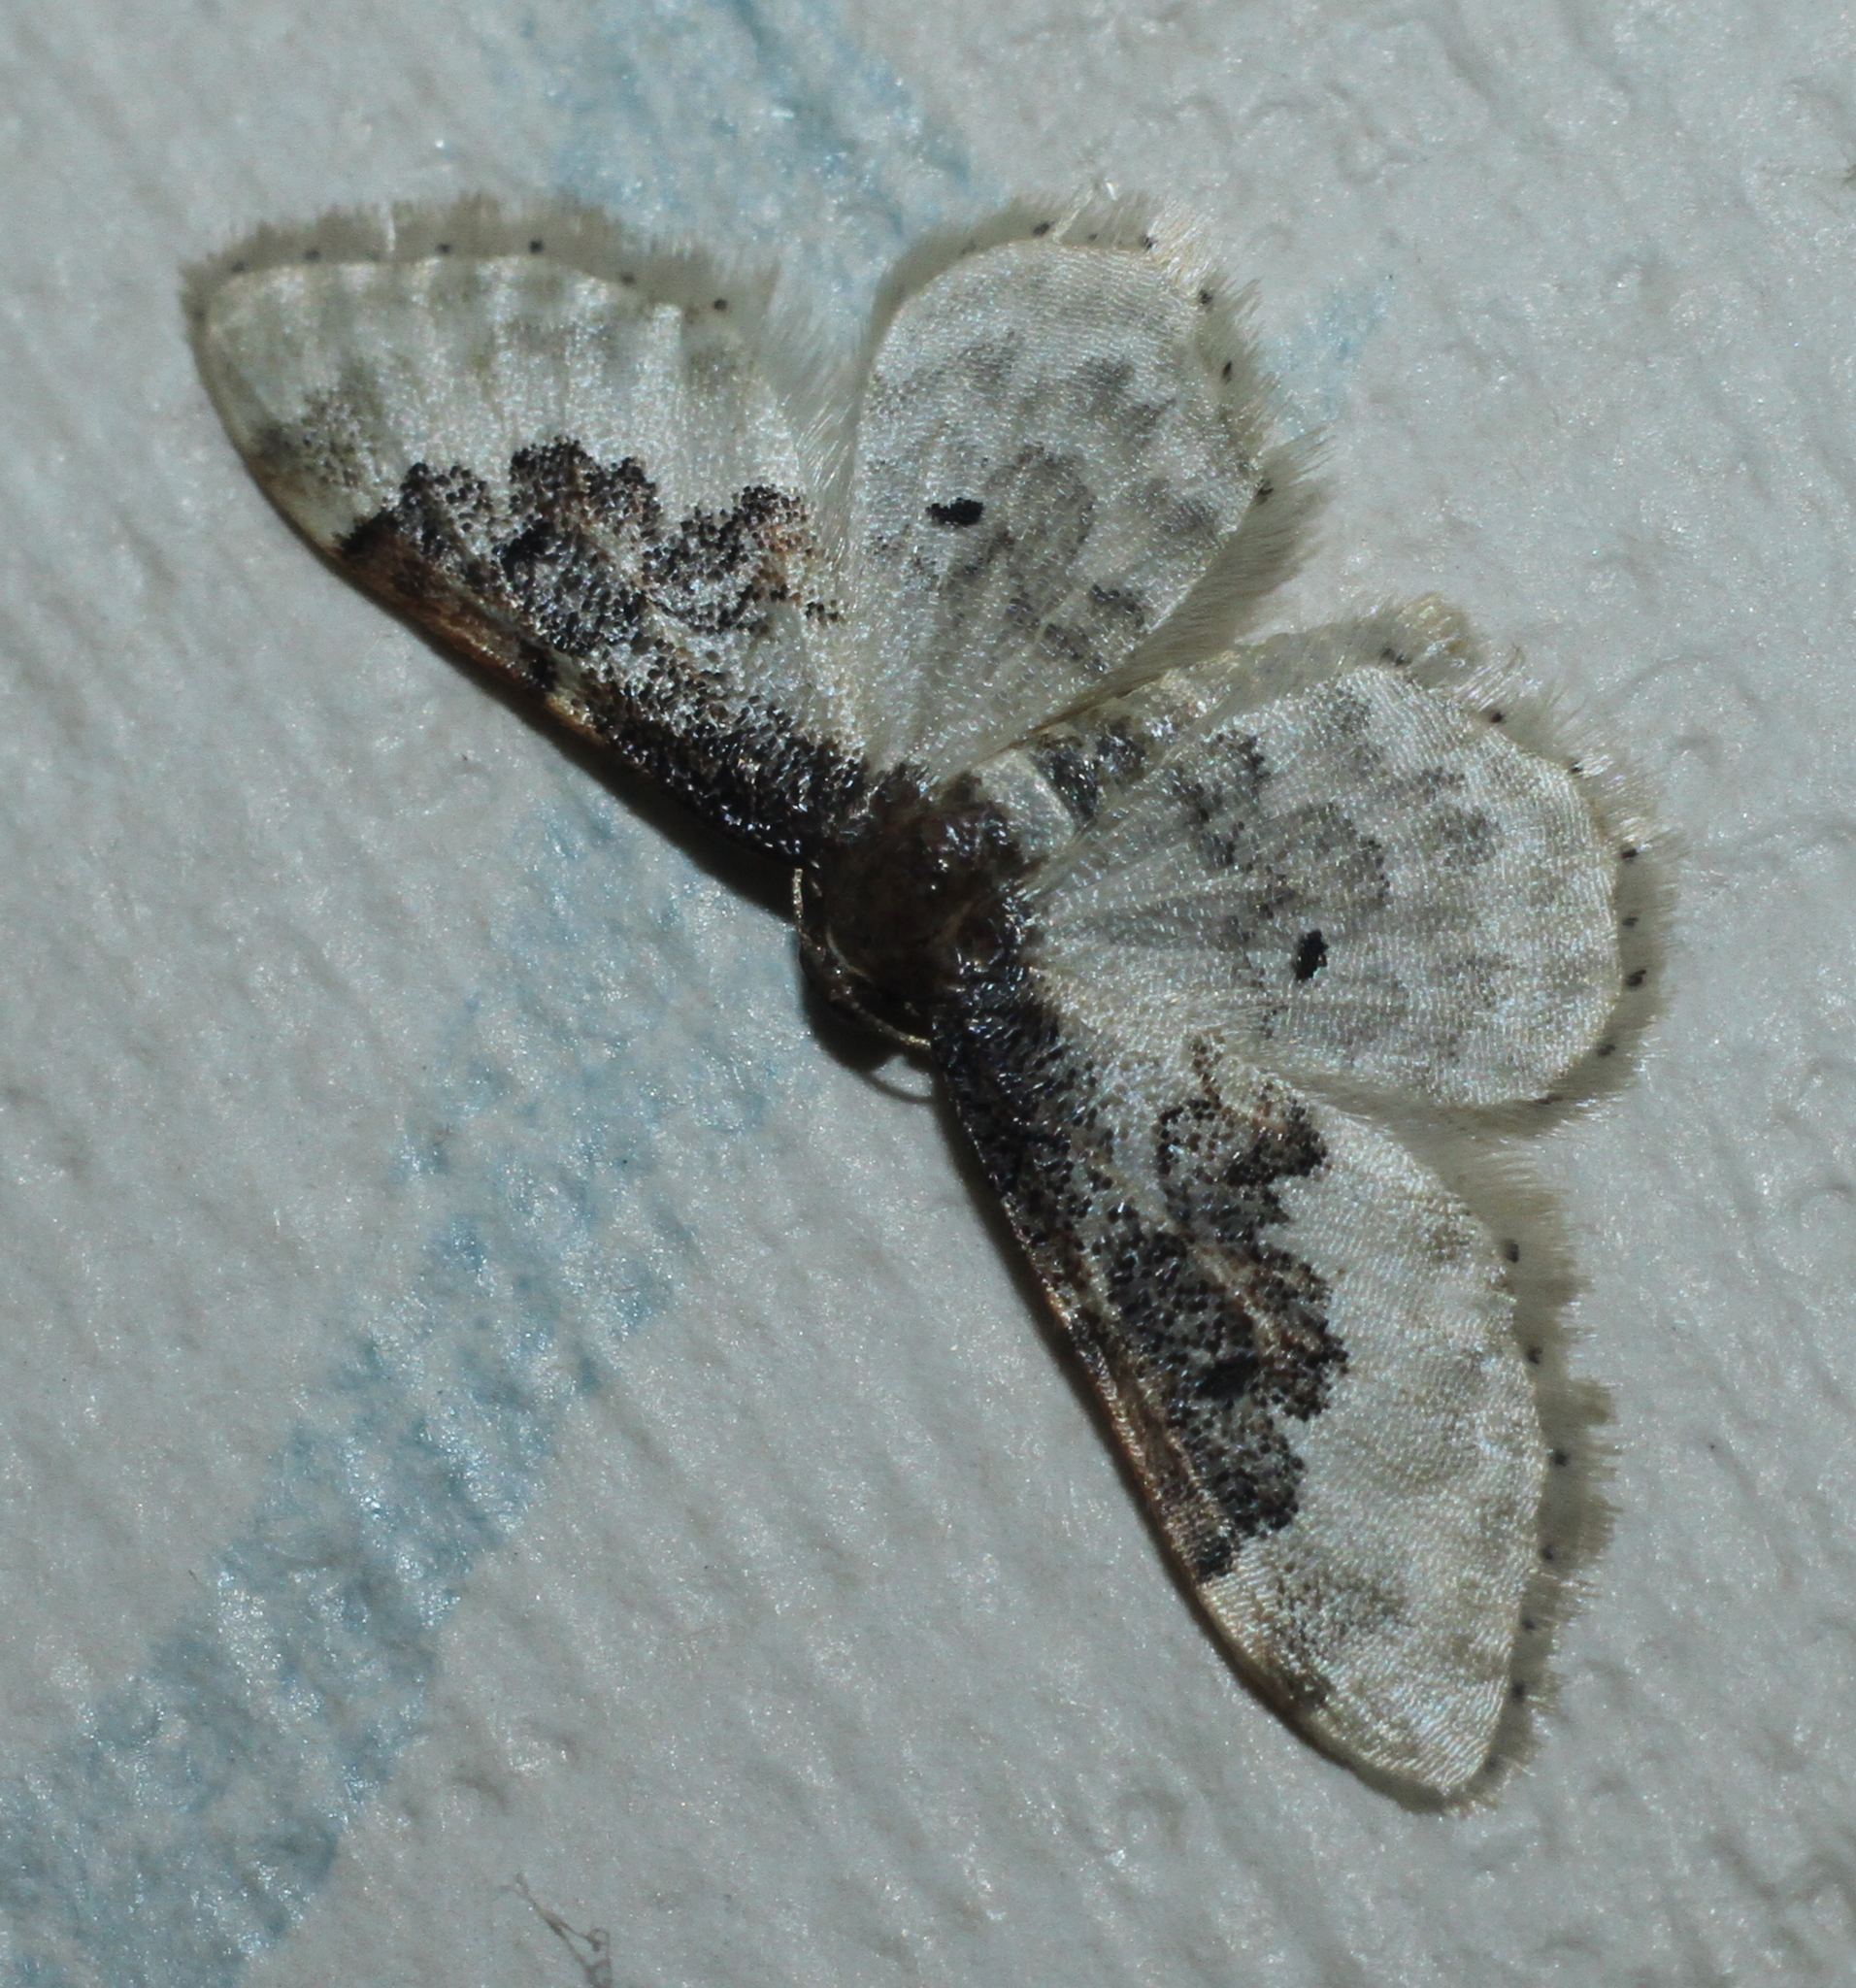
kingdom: Animalia
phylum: Arthropoda
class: Insecta
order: Lepidoptera
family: Geometridae
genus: Idaea
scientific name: Idaea rusticata
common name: Least carpet
